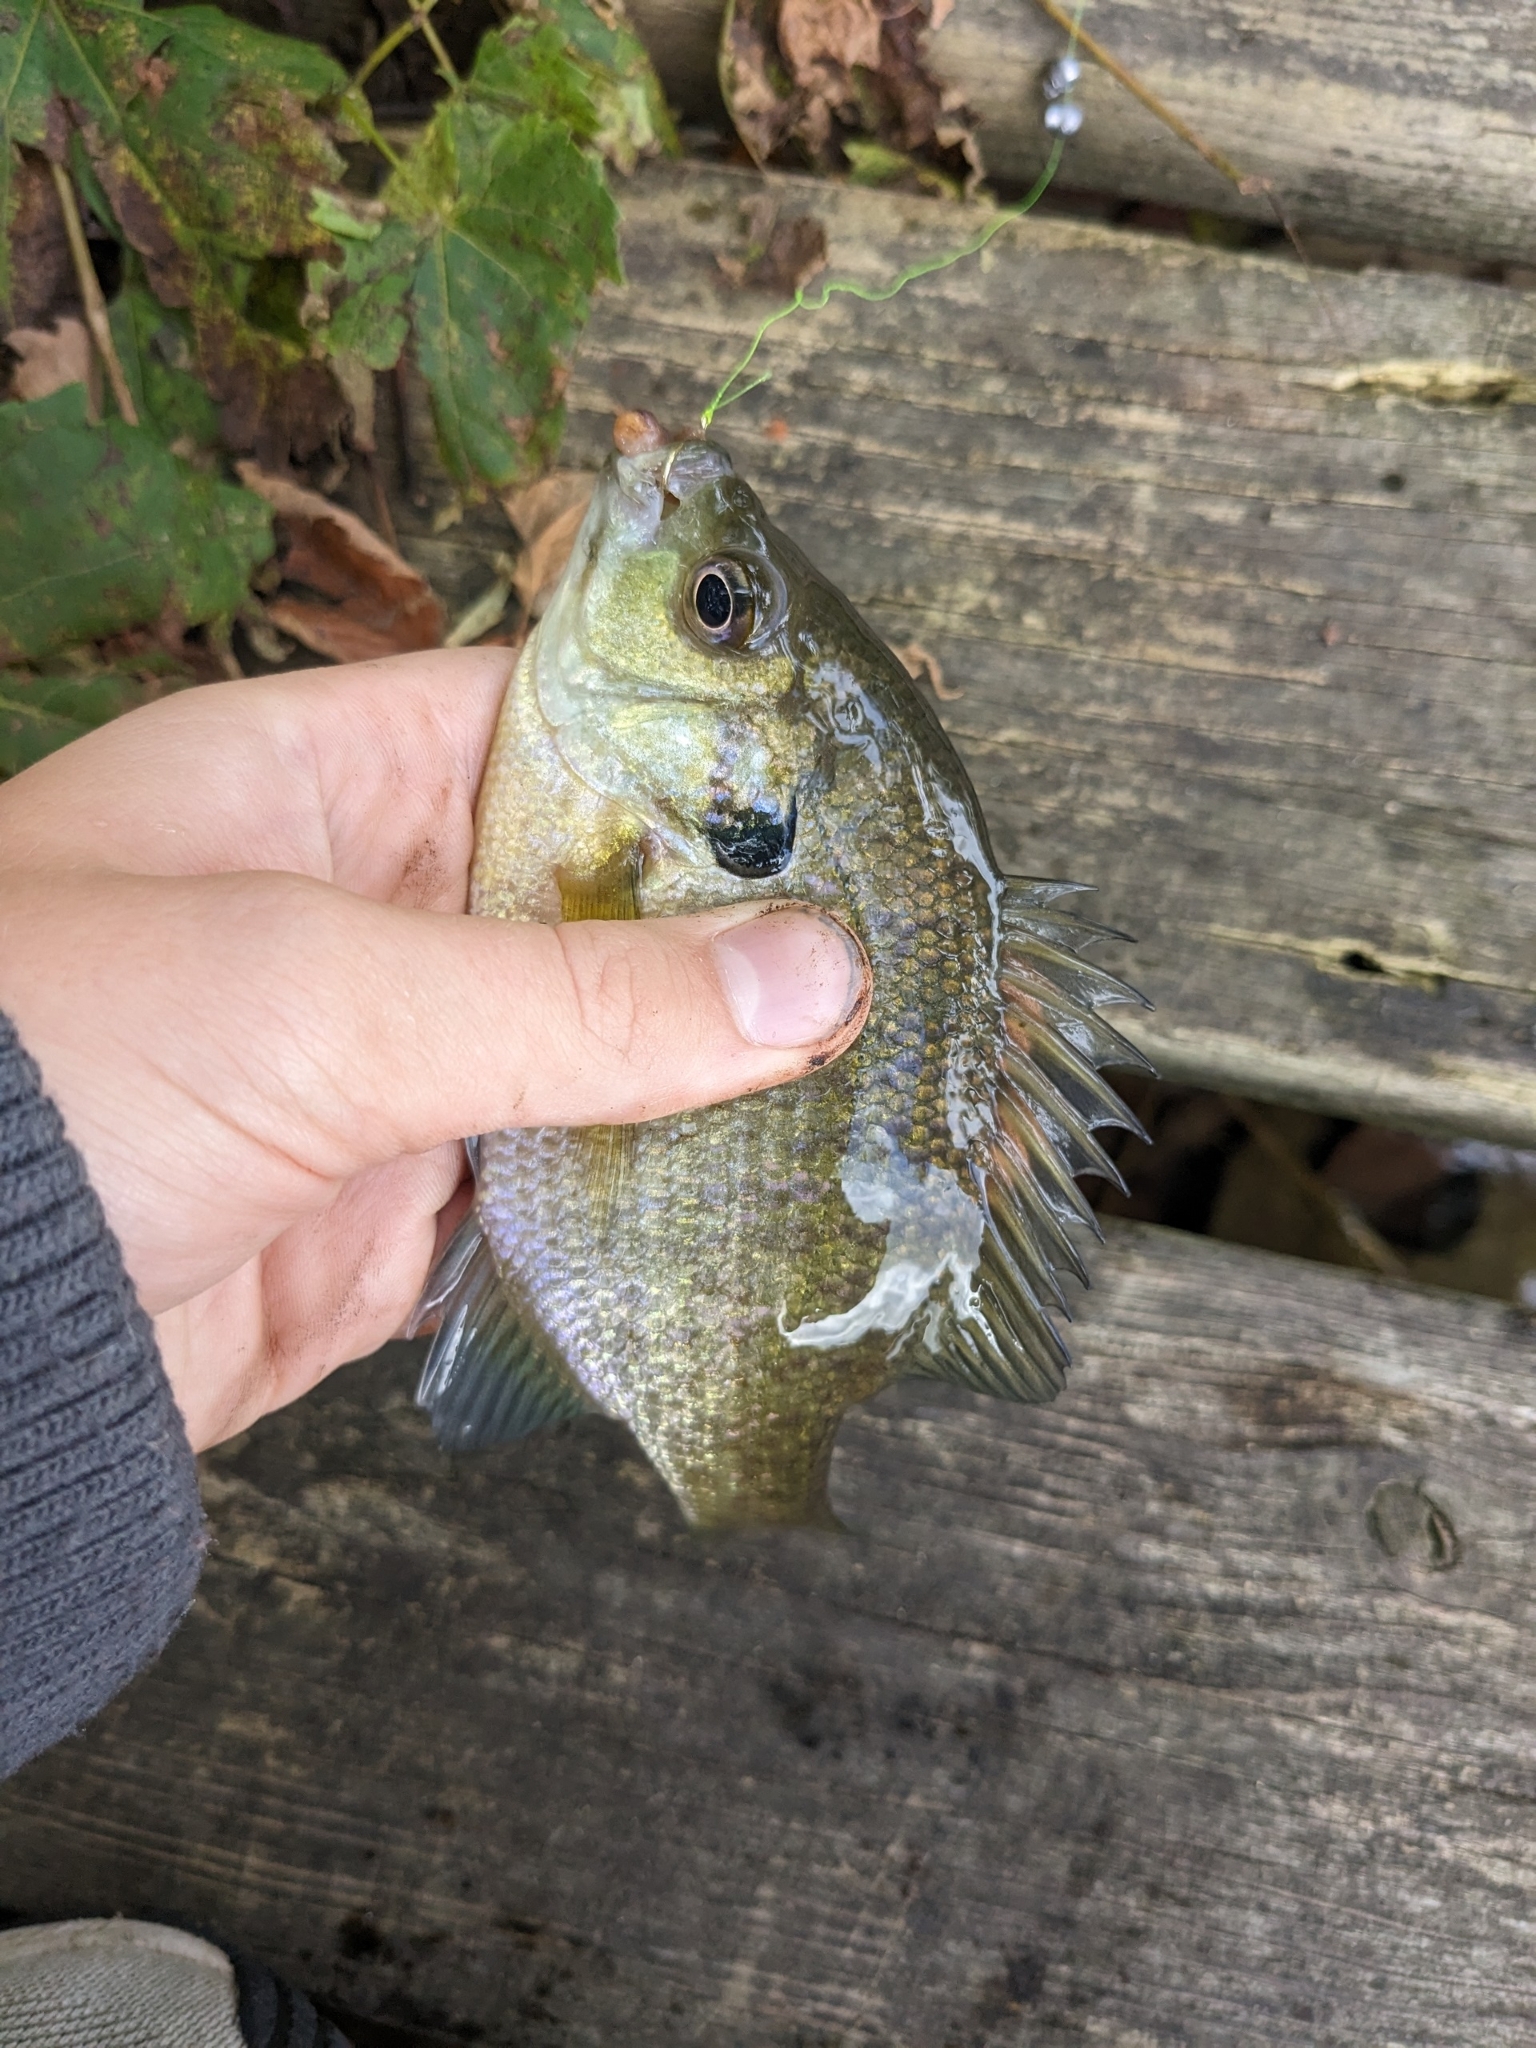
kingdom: Animalia
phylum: Chordata
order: Perciformes
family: Centrarchidae
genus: Lepomis
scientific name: Lepomis macrochirus
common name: Bluegill
